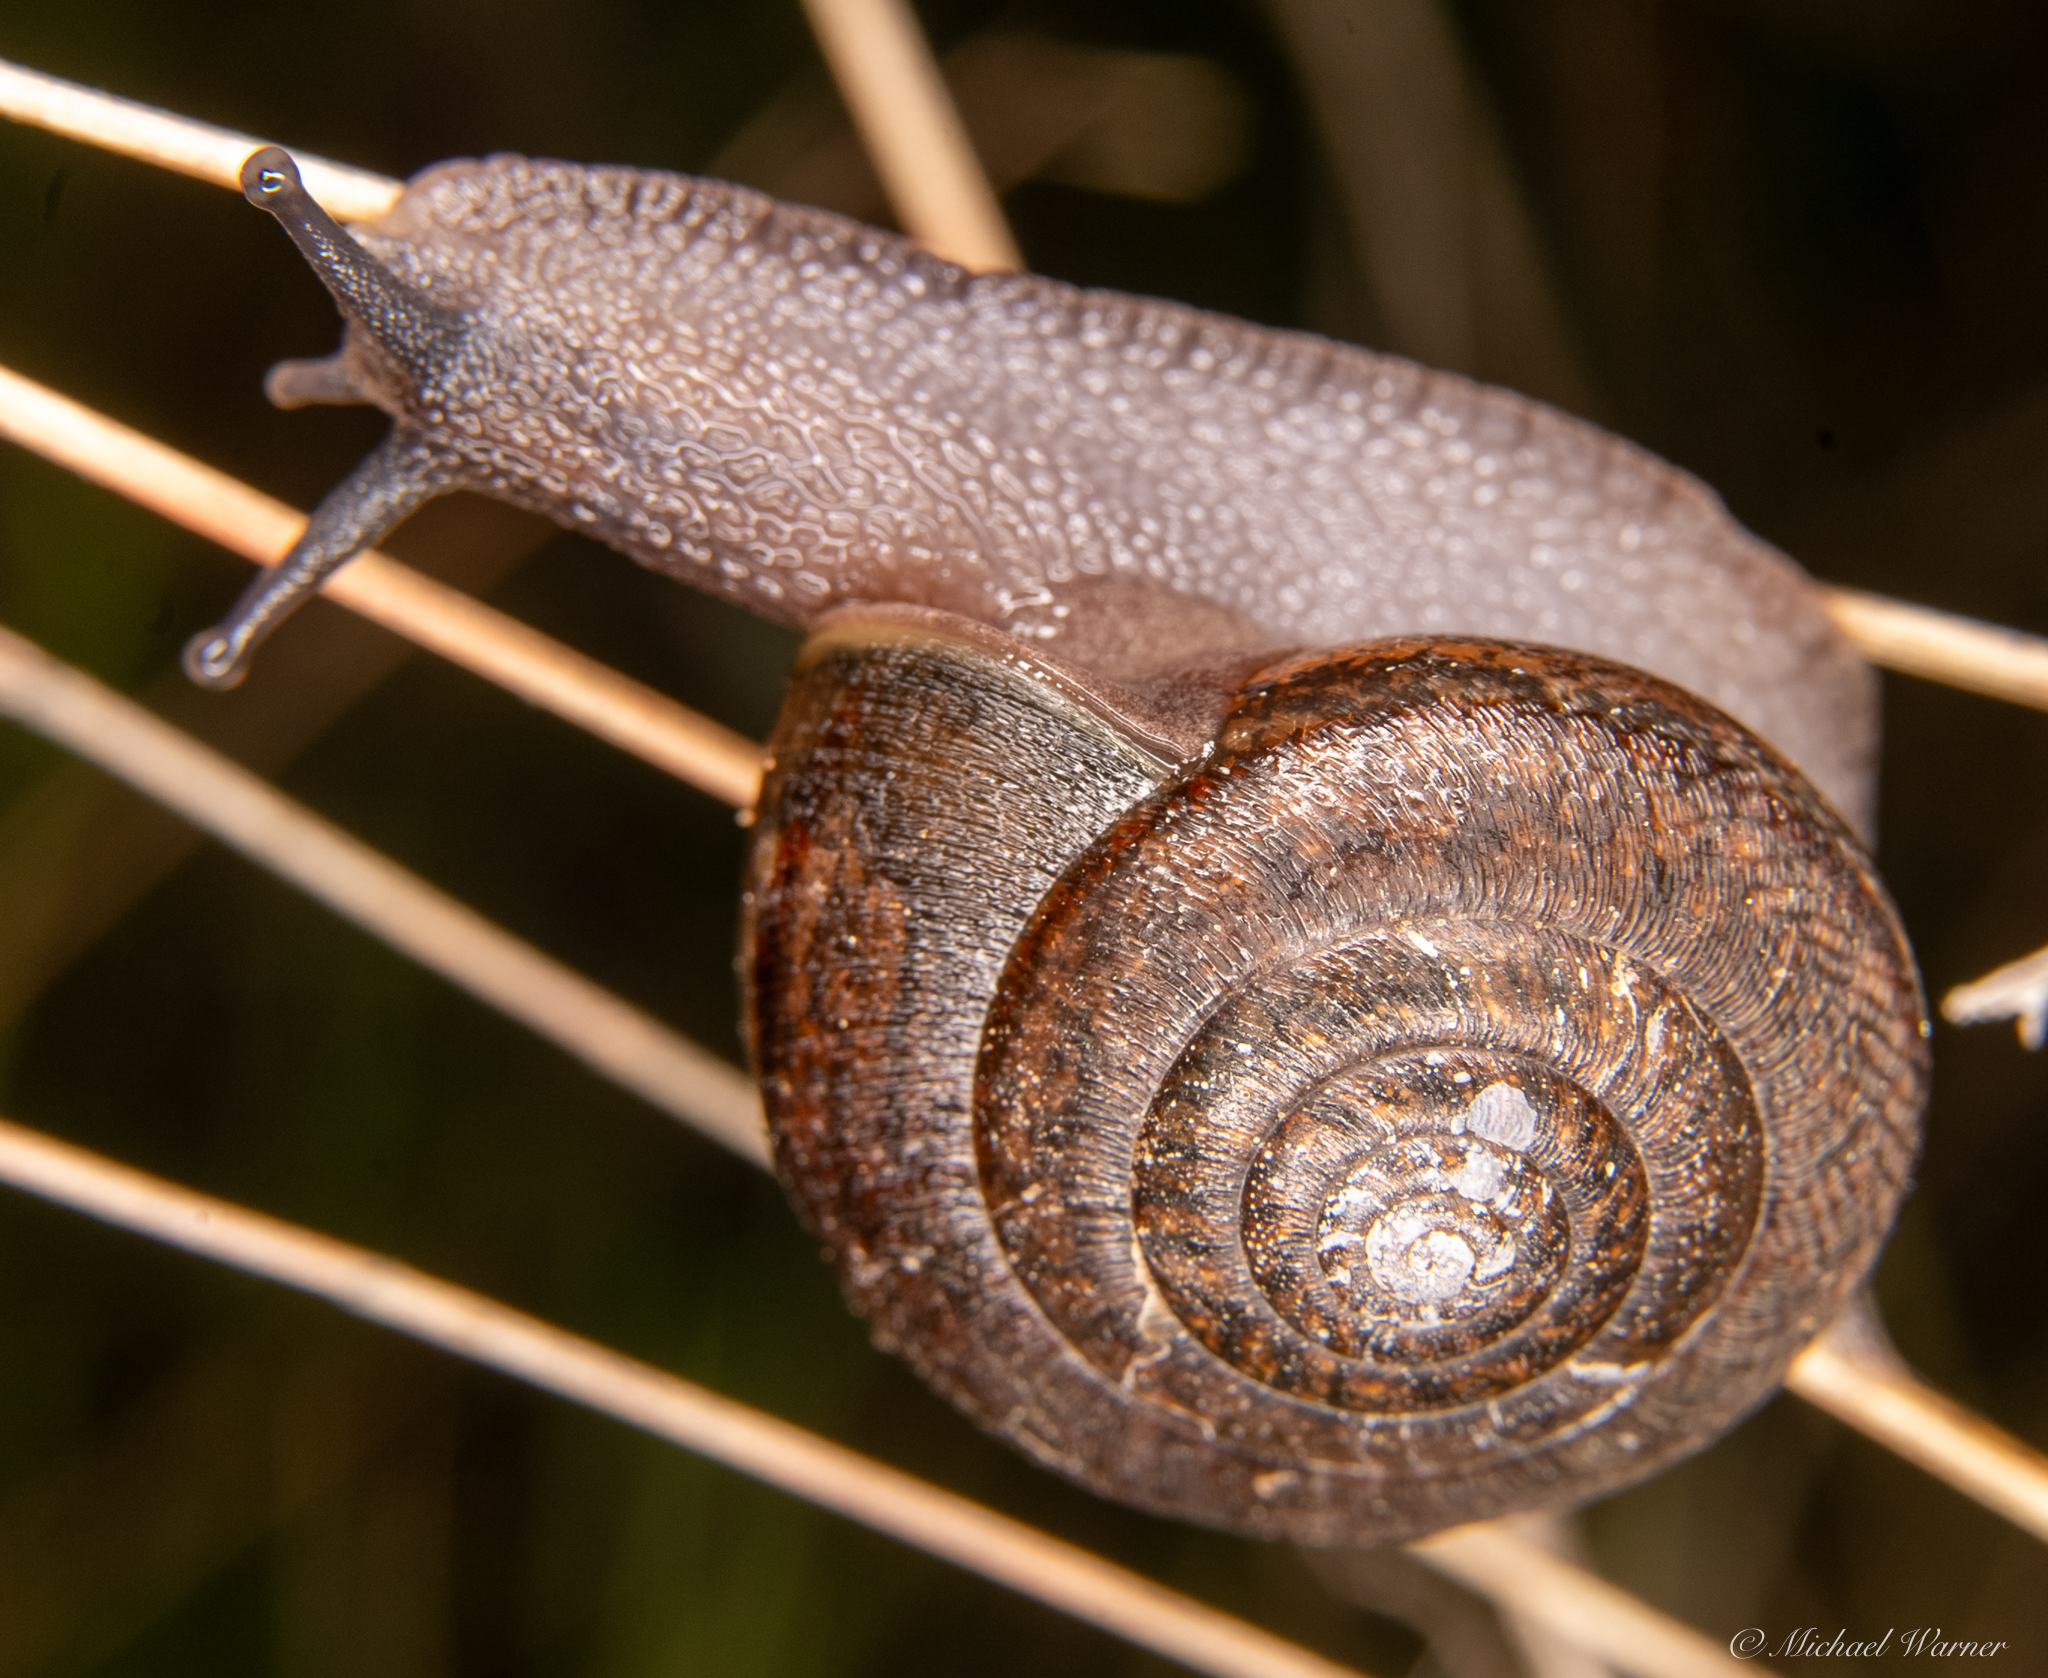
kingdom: Animalia
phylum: Mollusca
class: Gastropoda
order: Stylommatophora
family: Xanthonychidae
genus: Helminthoglypta
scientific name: Helminthoglypta diabloensis
